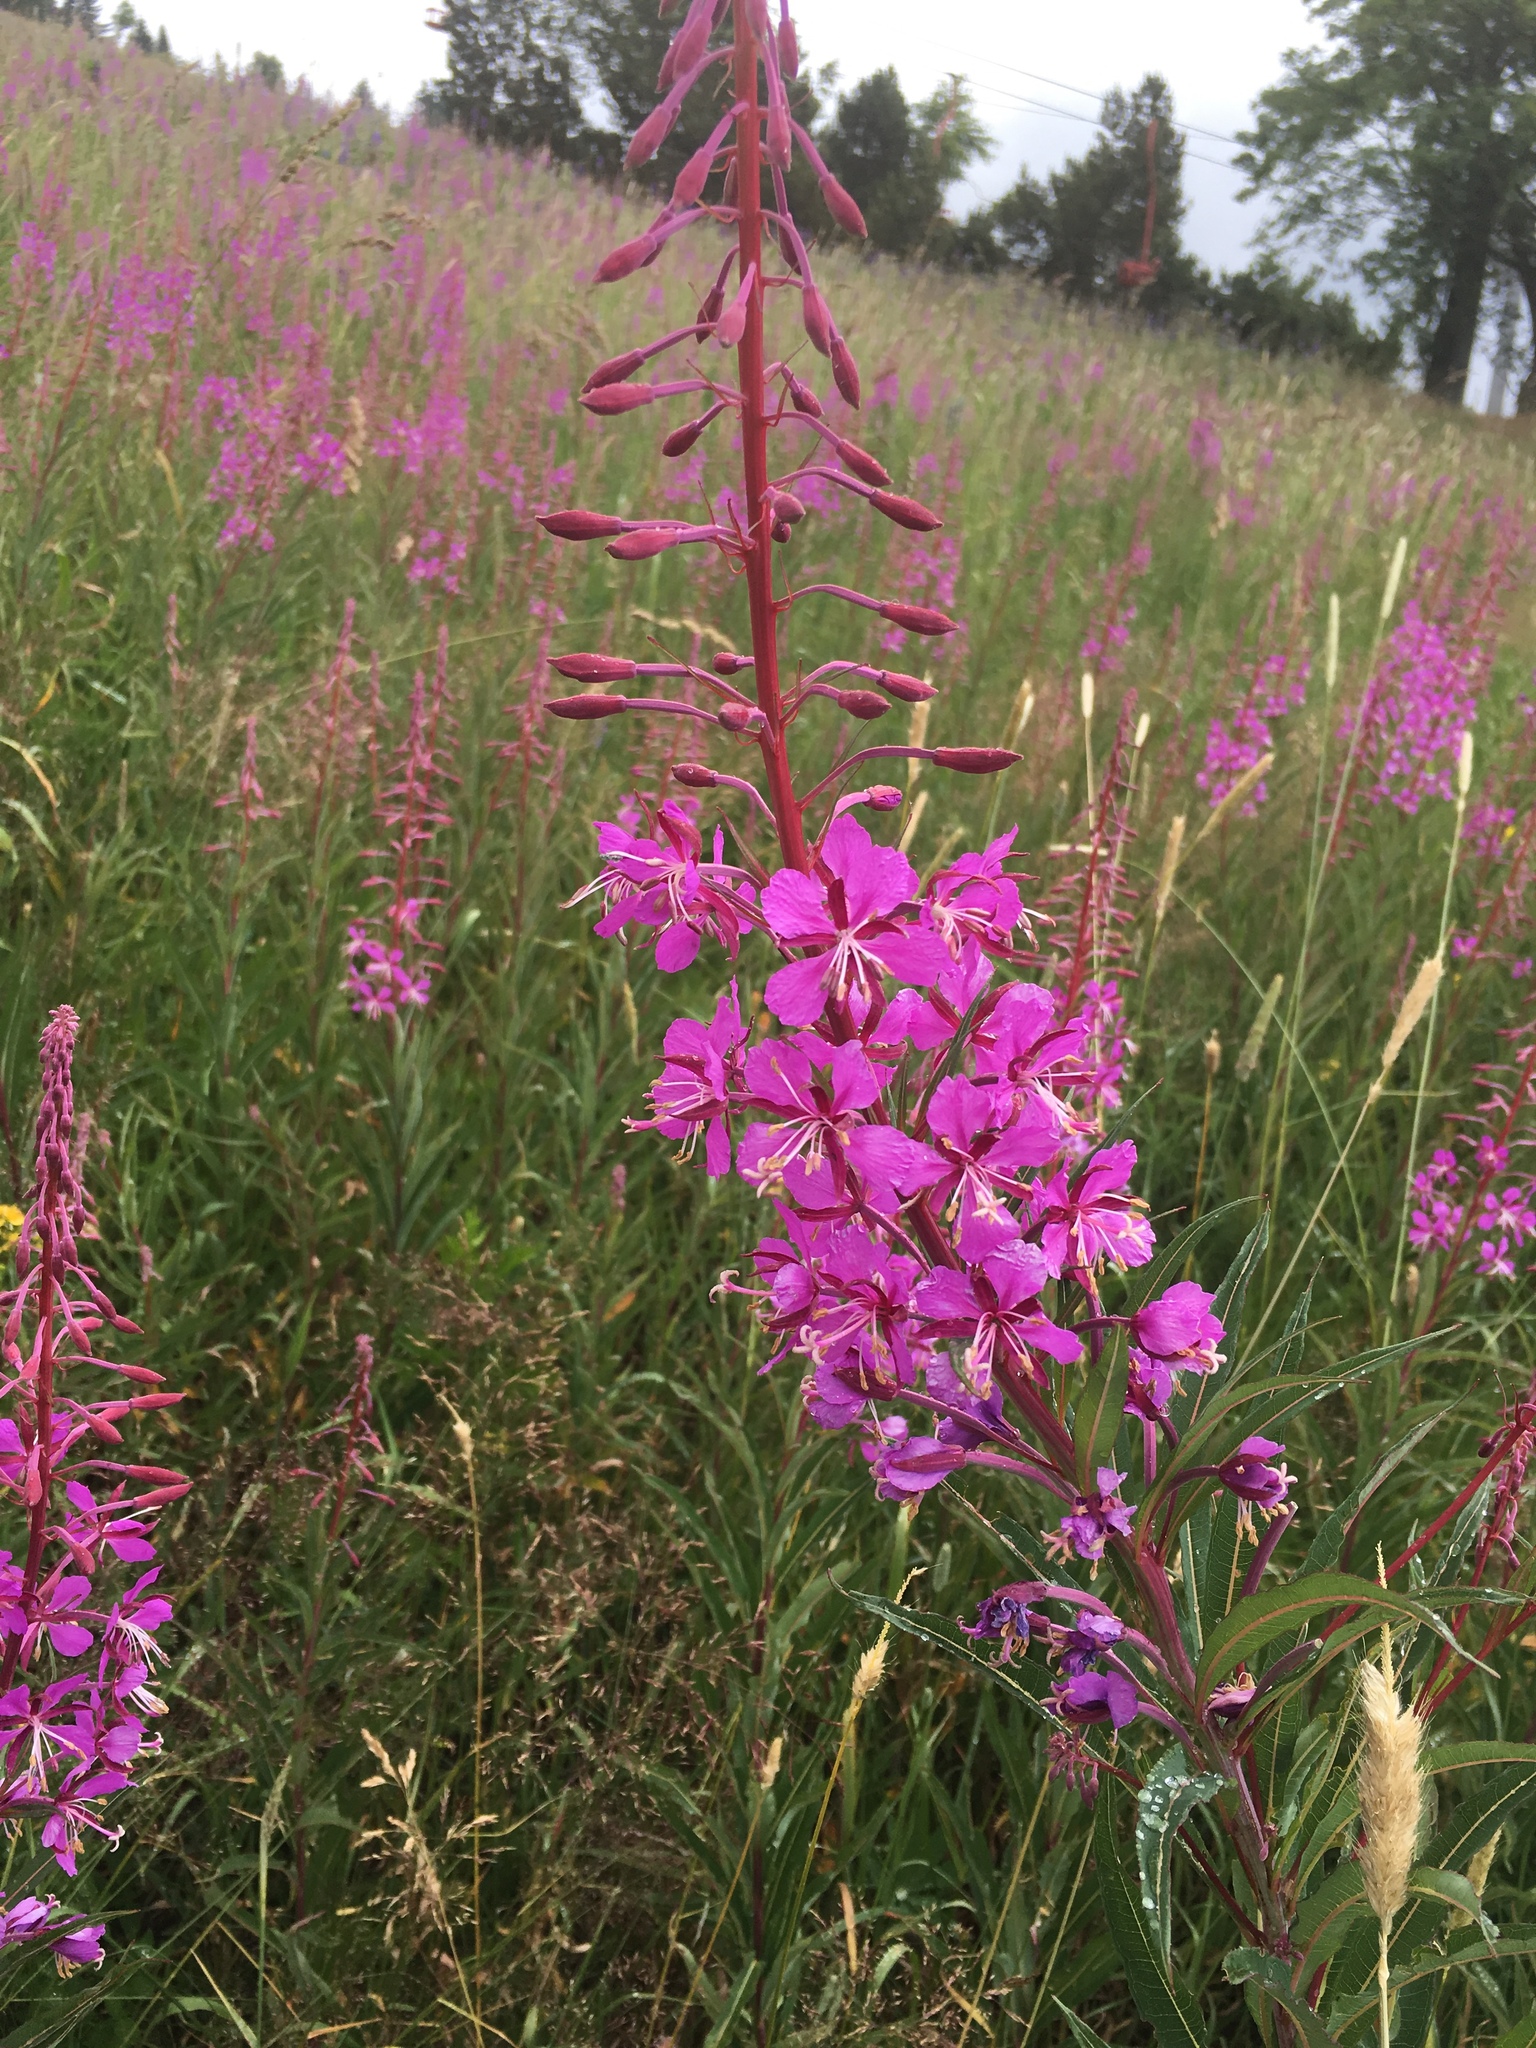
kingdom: Plantae
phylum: Tracheophyta
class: Magnoliopsida
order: Myrtales
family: Onagraceae
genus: Chamaenerion
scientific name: Chamaenerion angustifolium
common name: Fireweed
